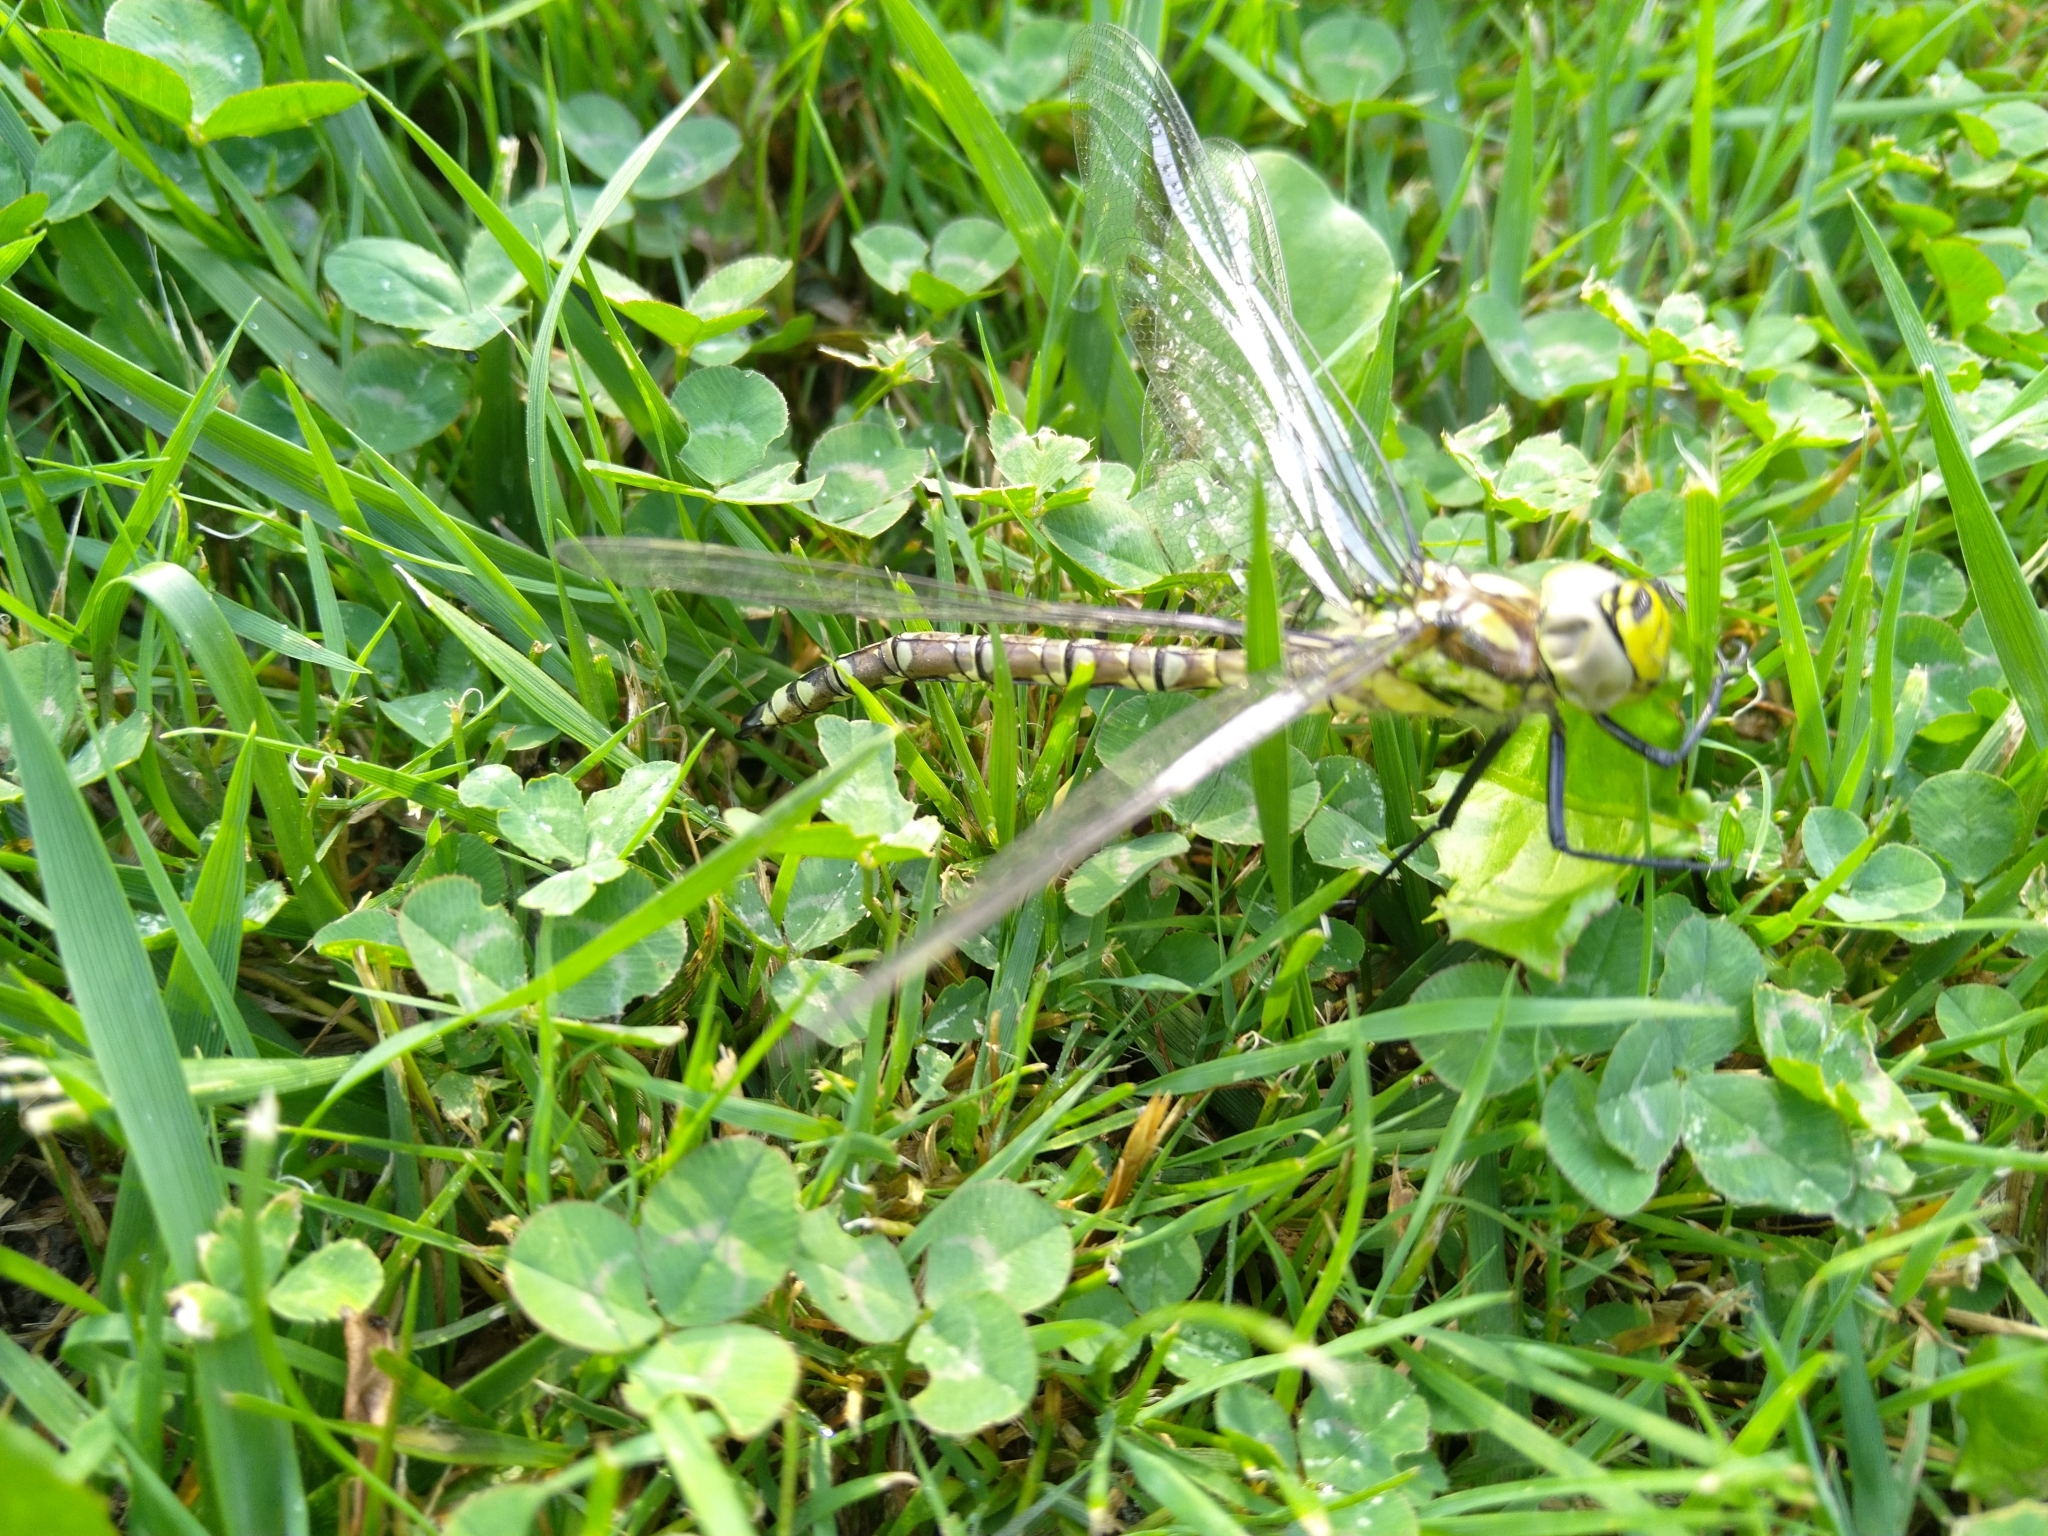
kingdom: Animalia
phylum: Arthropoda
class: Insecta
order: Odonata
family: Aeshnidae
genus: Aeshna
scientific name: Aeshna cyanea
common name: Southern hawker
